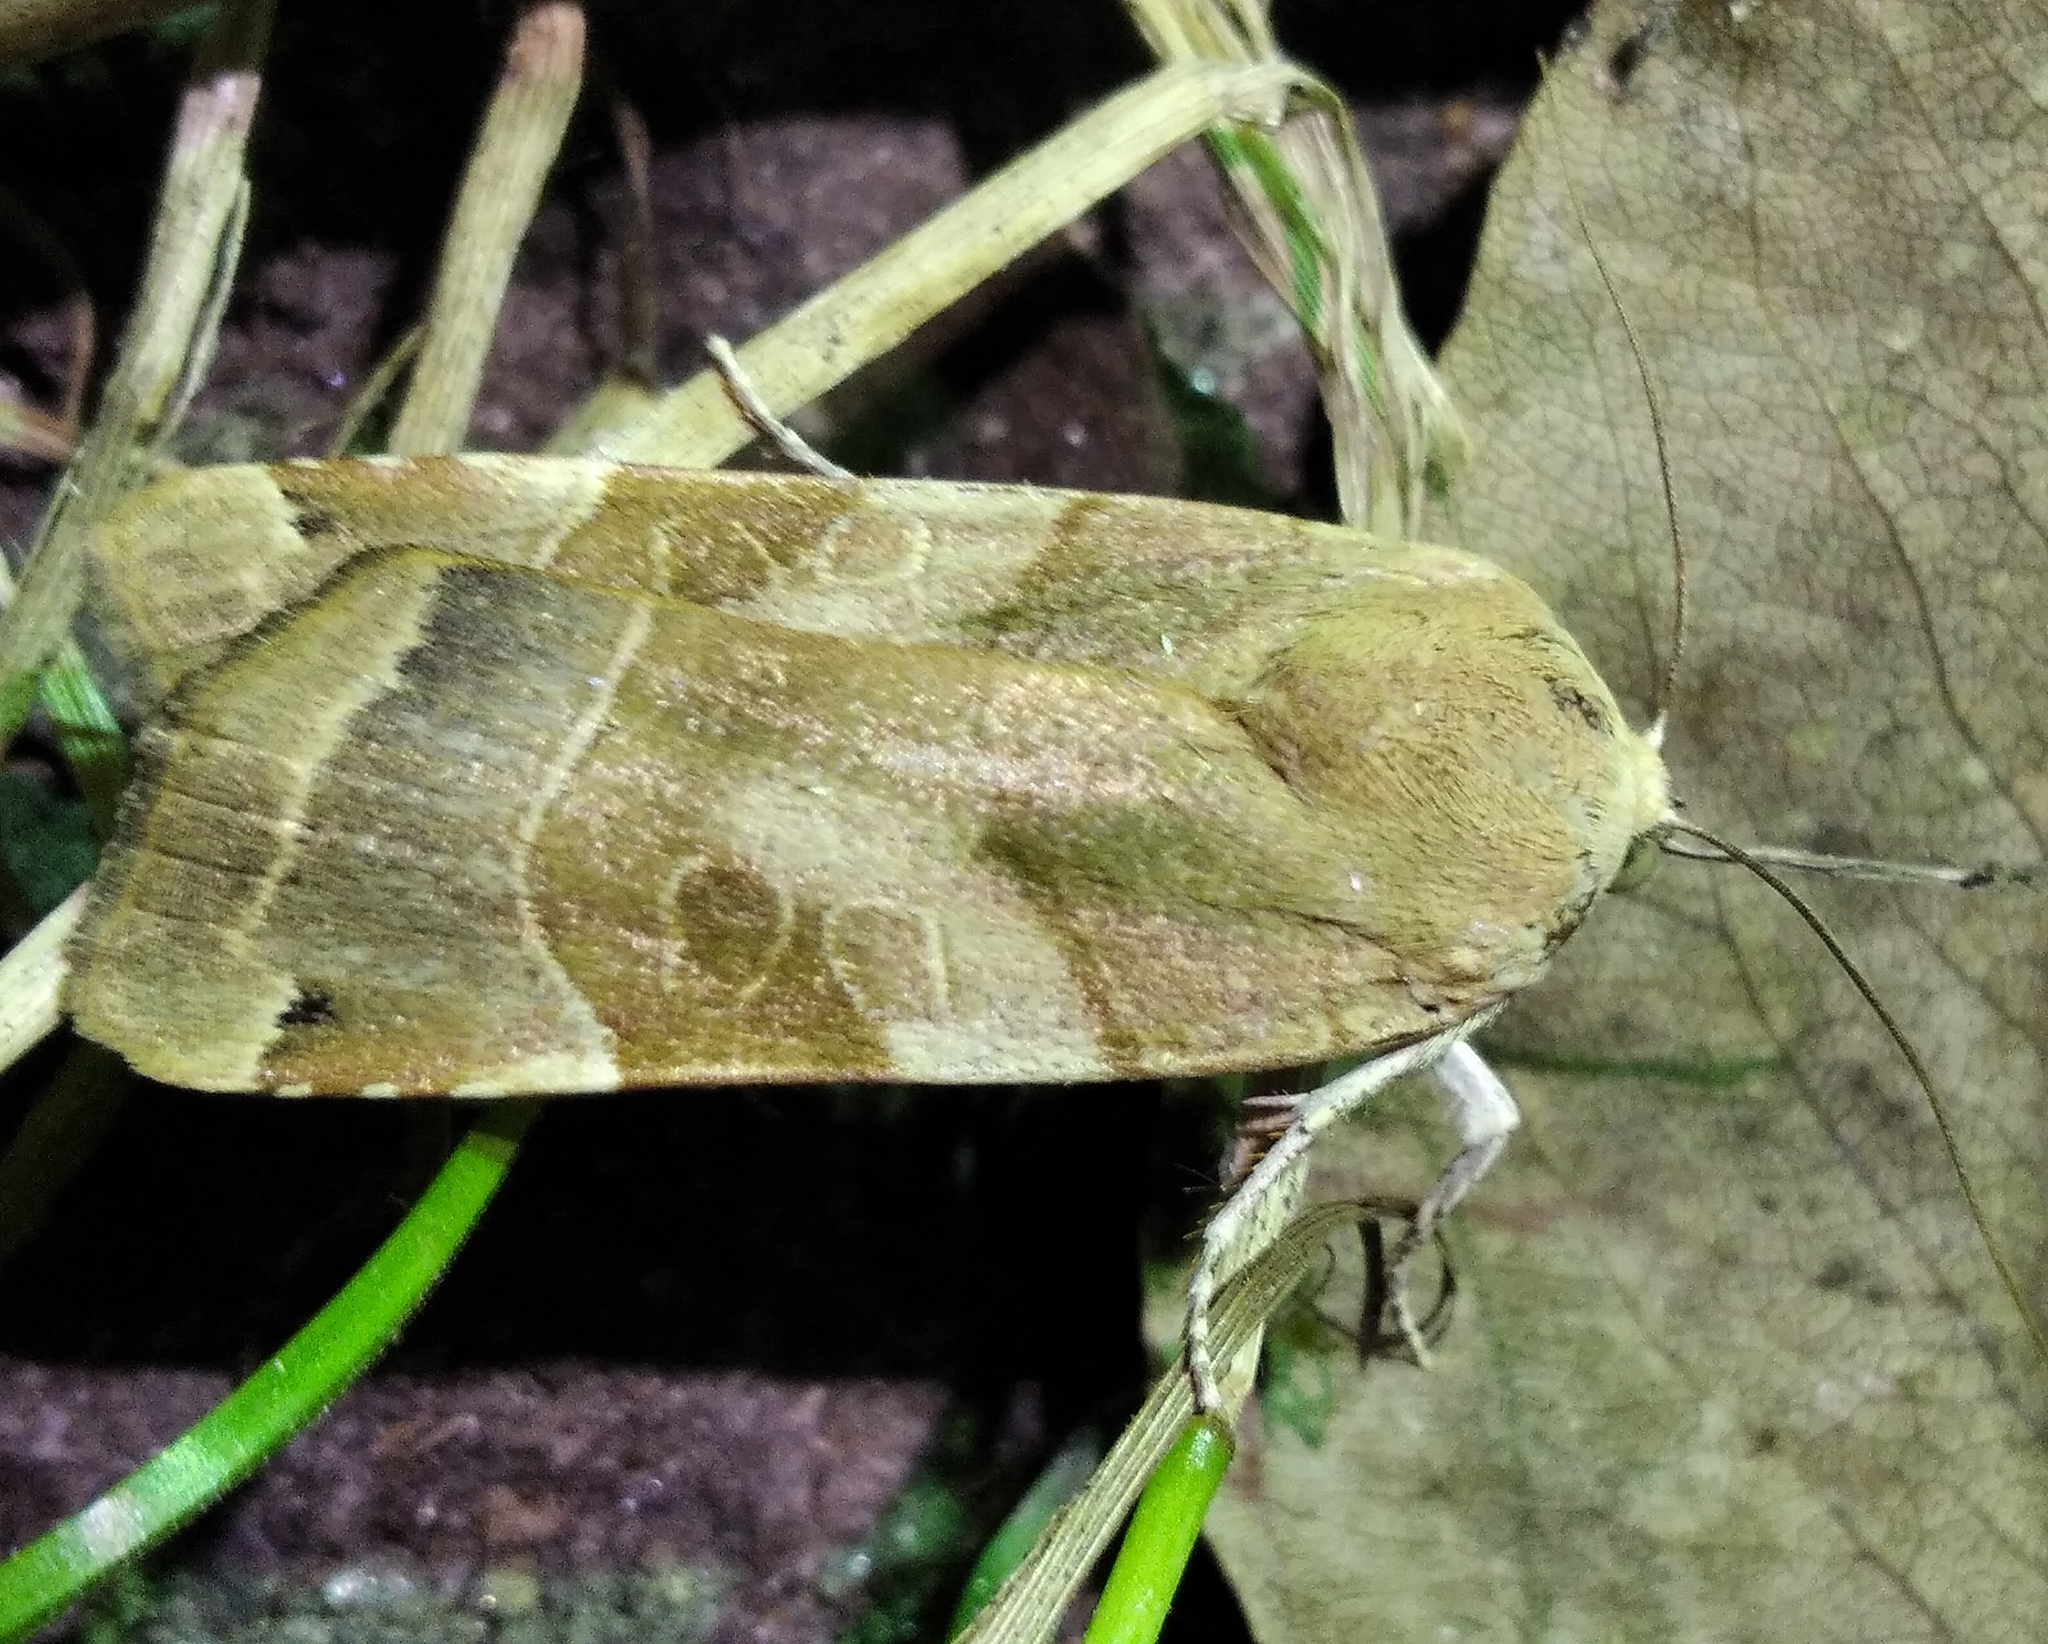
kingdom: Animalia
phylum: Arthropoda
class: Insecta
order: Lepidoptera
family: Noctuidae
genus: Noctua
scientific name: Noctua fimbriata
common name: Broad-bordered yellow underwing
